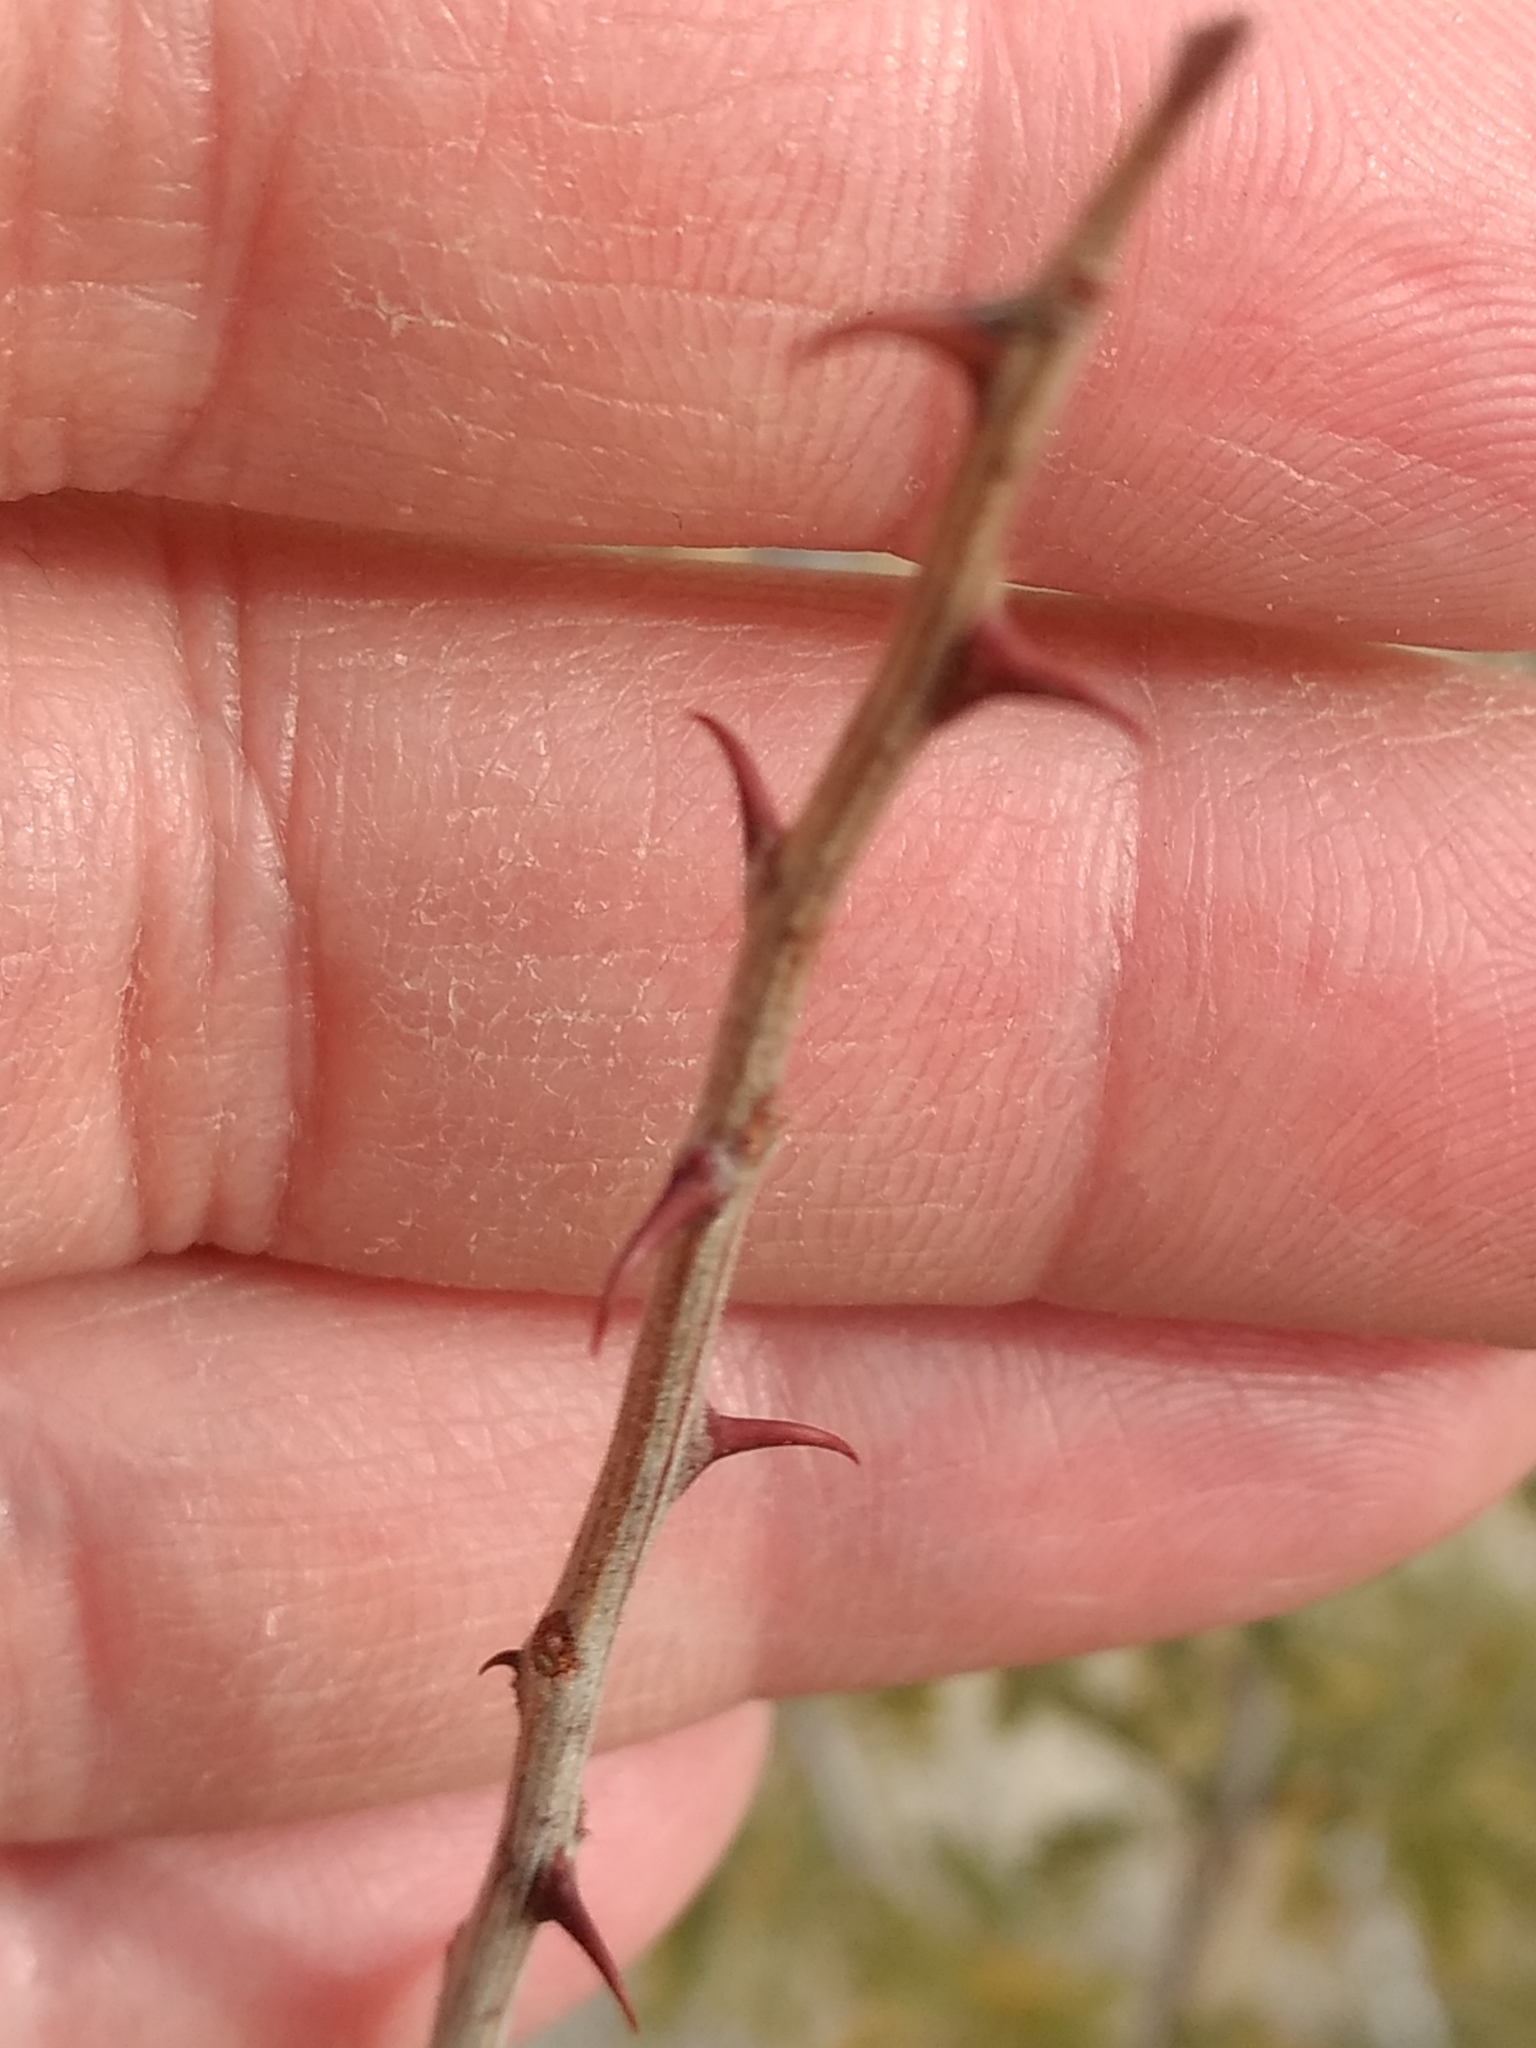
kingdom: Plantae
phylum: Tracheophyta
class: Magnoliopsida
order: Fabales
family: Fabaceae
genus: Senegalia
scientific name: Senegalia greggii
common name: Texas-mimosa
